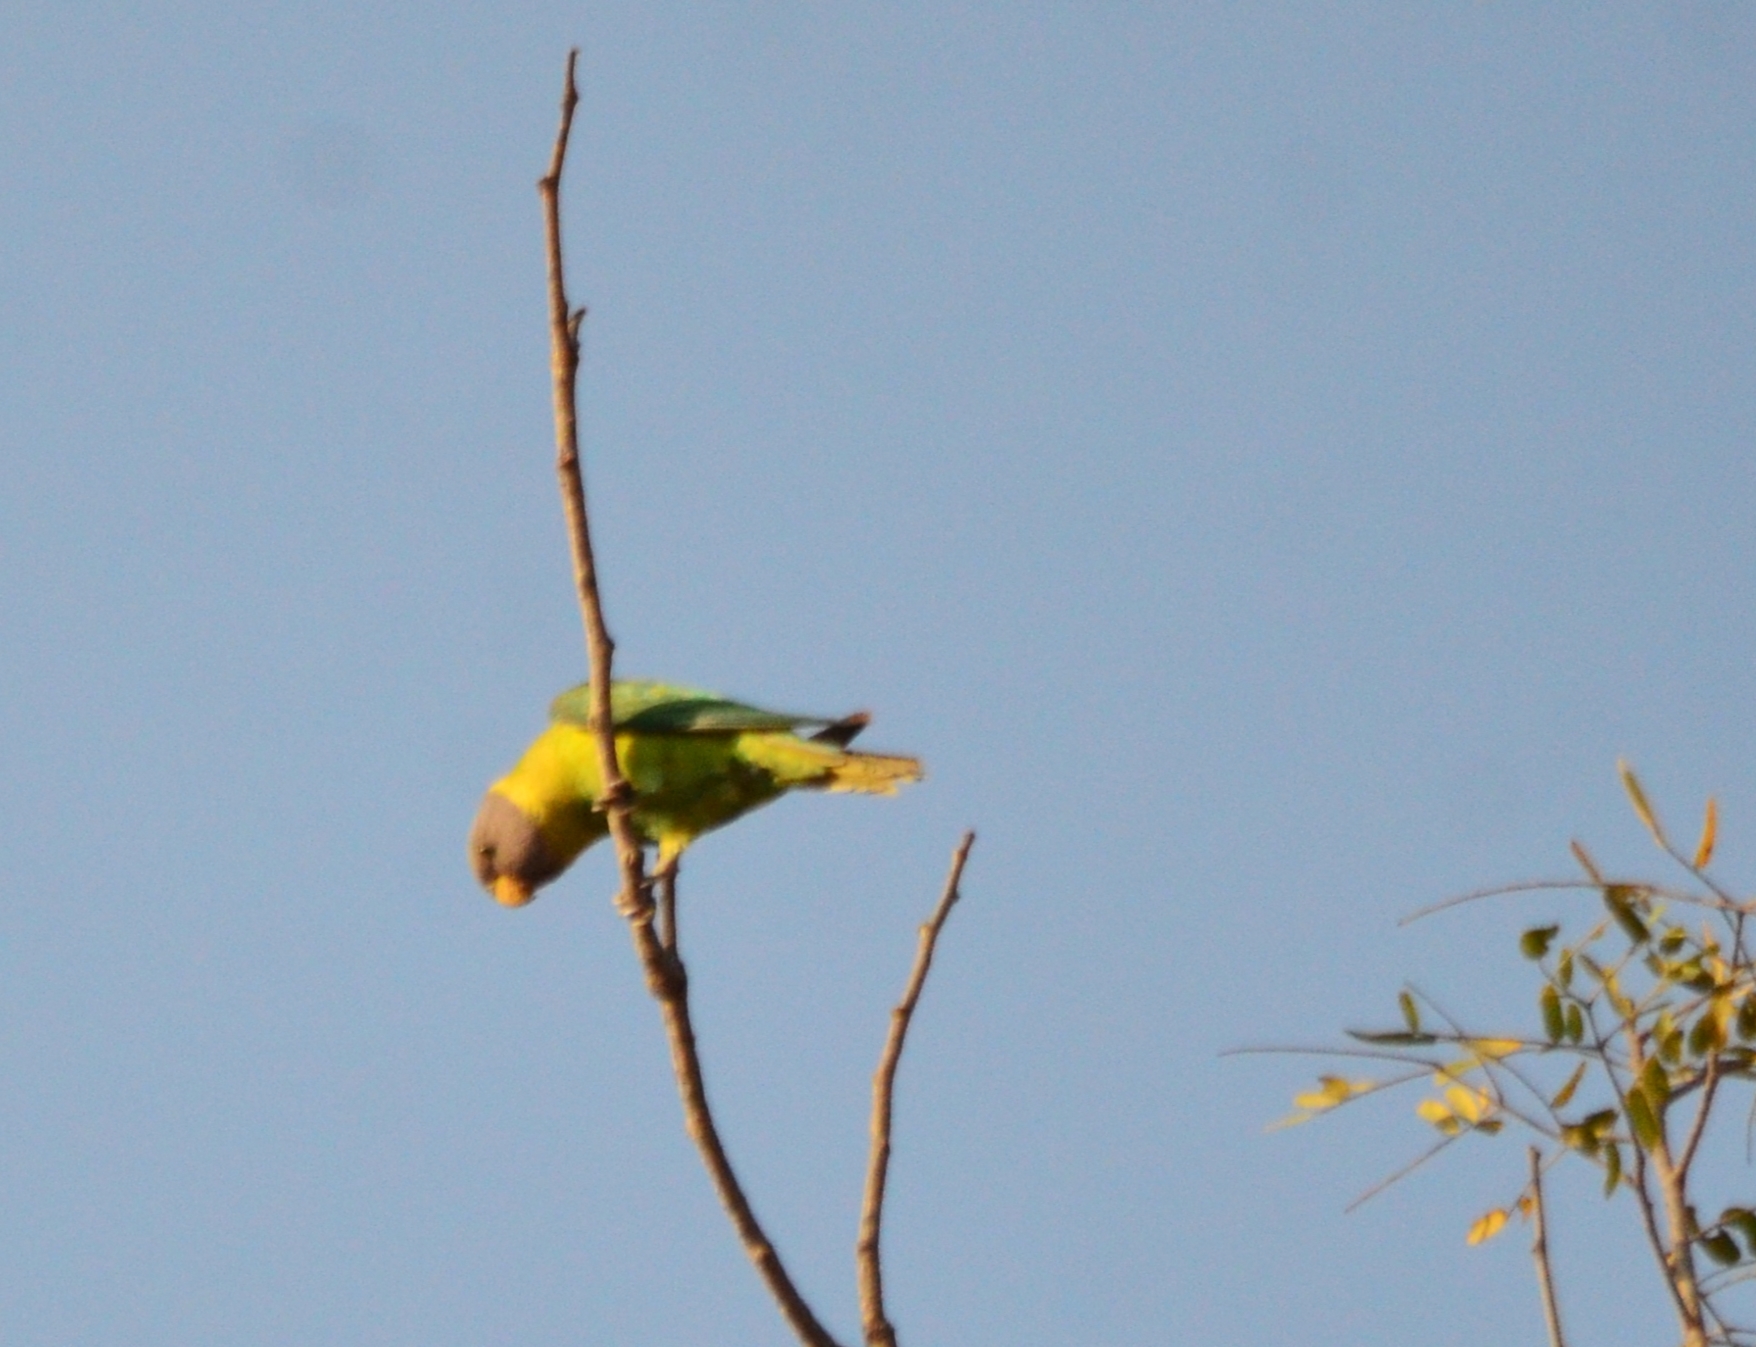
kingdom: Animalia
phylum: Chordata
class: Aves
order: Psittaciformes
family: Psittacidae
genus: Psittacula
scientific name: Psittacula cyanocephala
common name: Plum-headed parakeet
